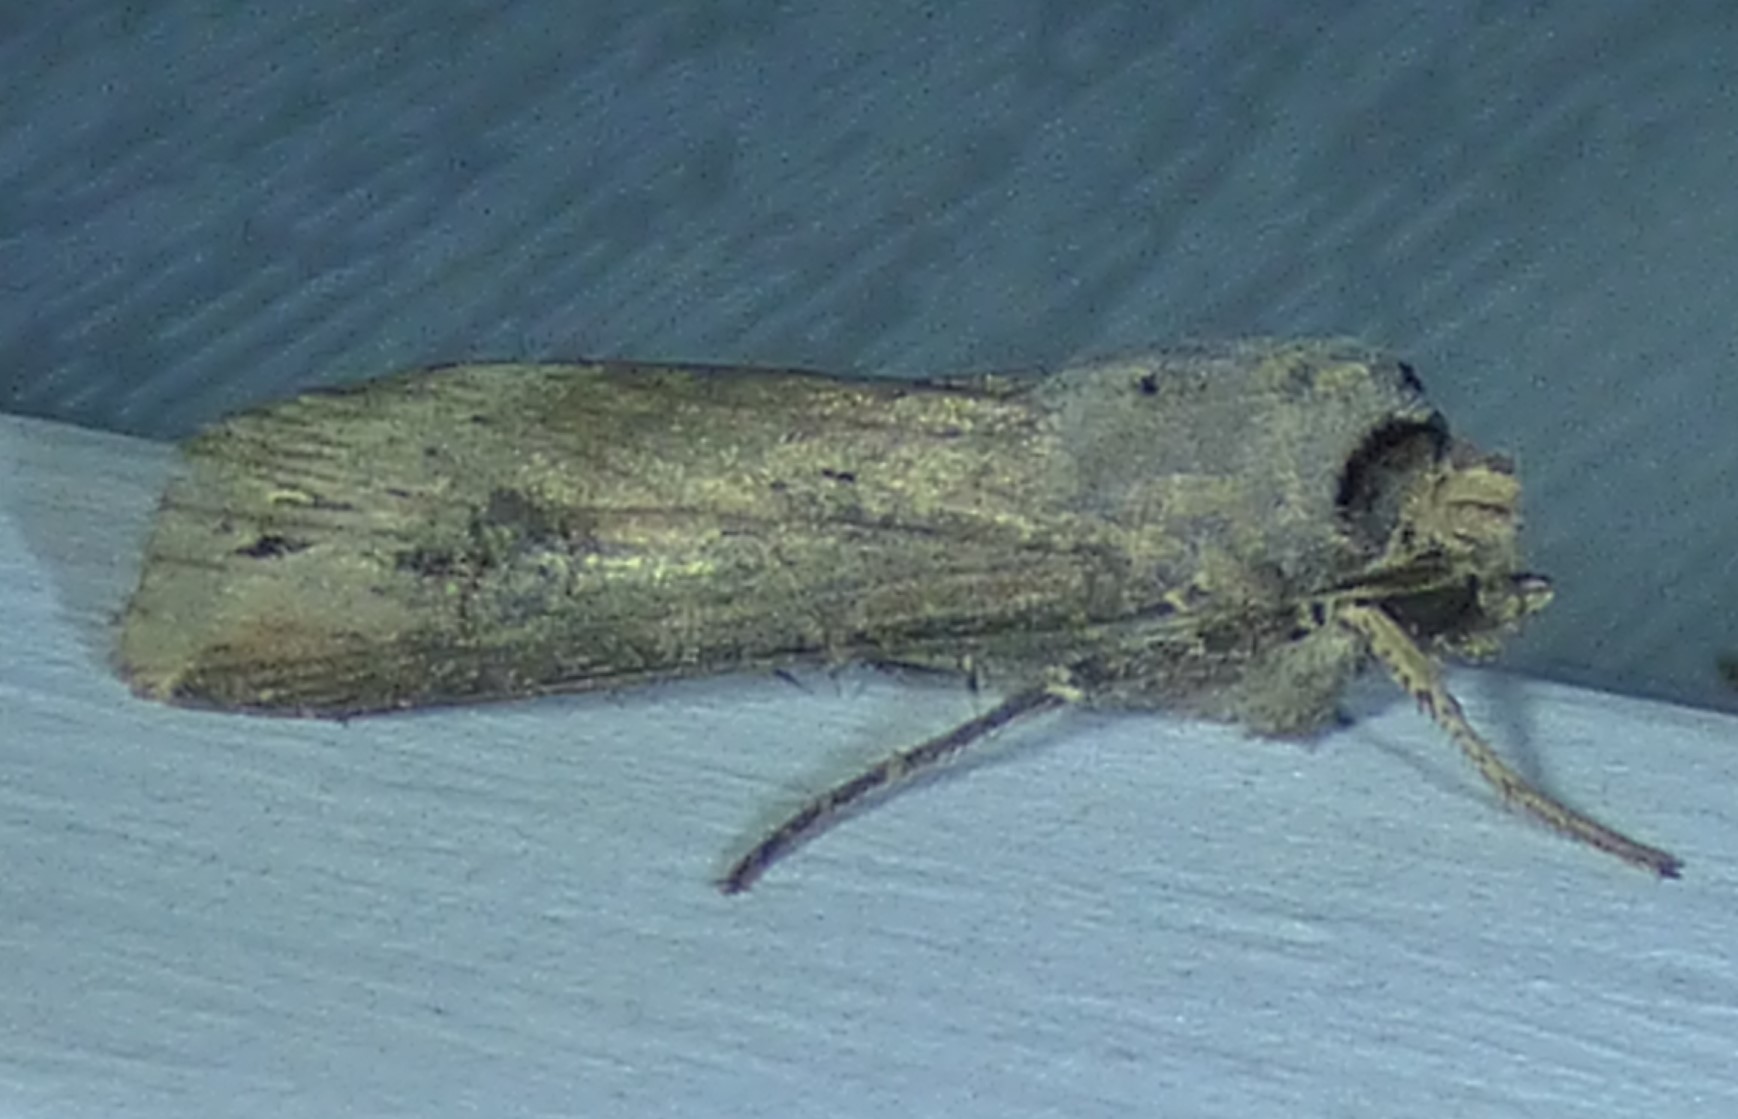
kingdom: Animalia
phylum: Arthropoda
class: Insecta
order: Lepidoptera
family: Noctuidae
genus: Agrotis
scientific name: Agrotis ipsilon
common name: Dark sword-grass
